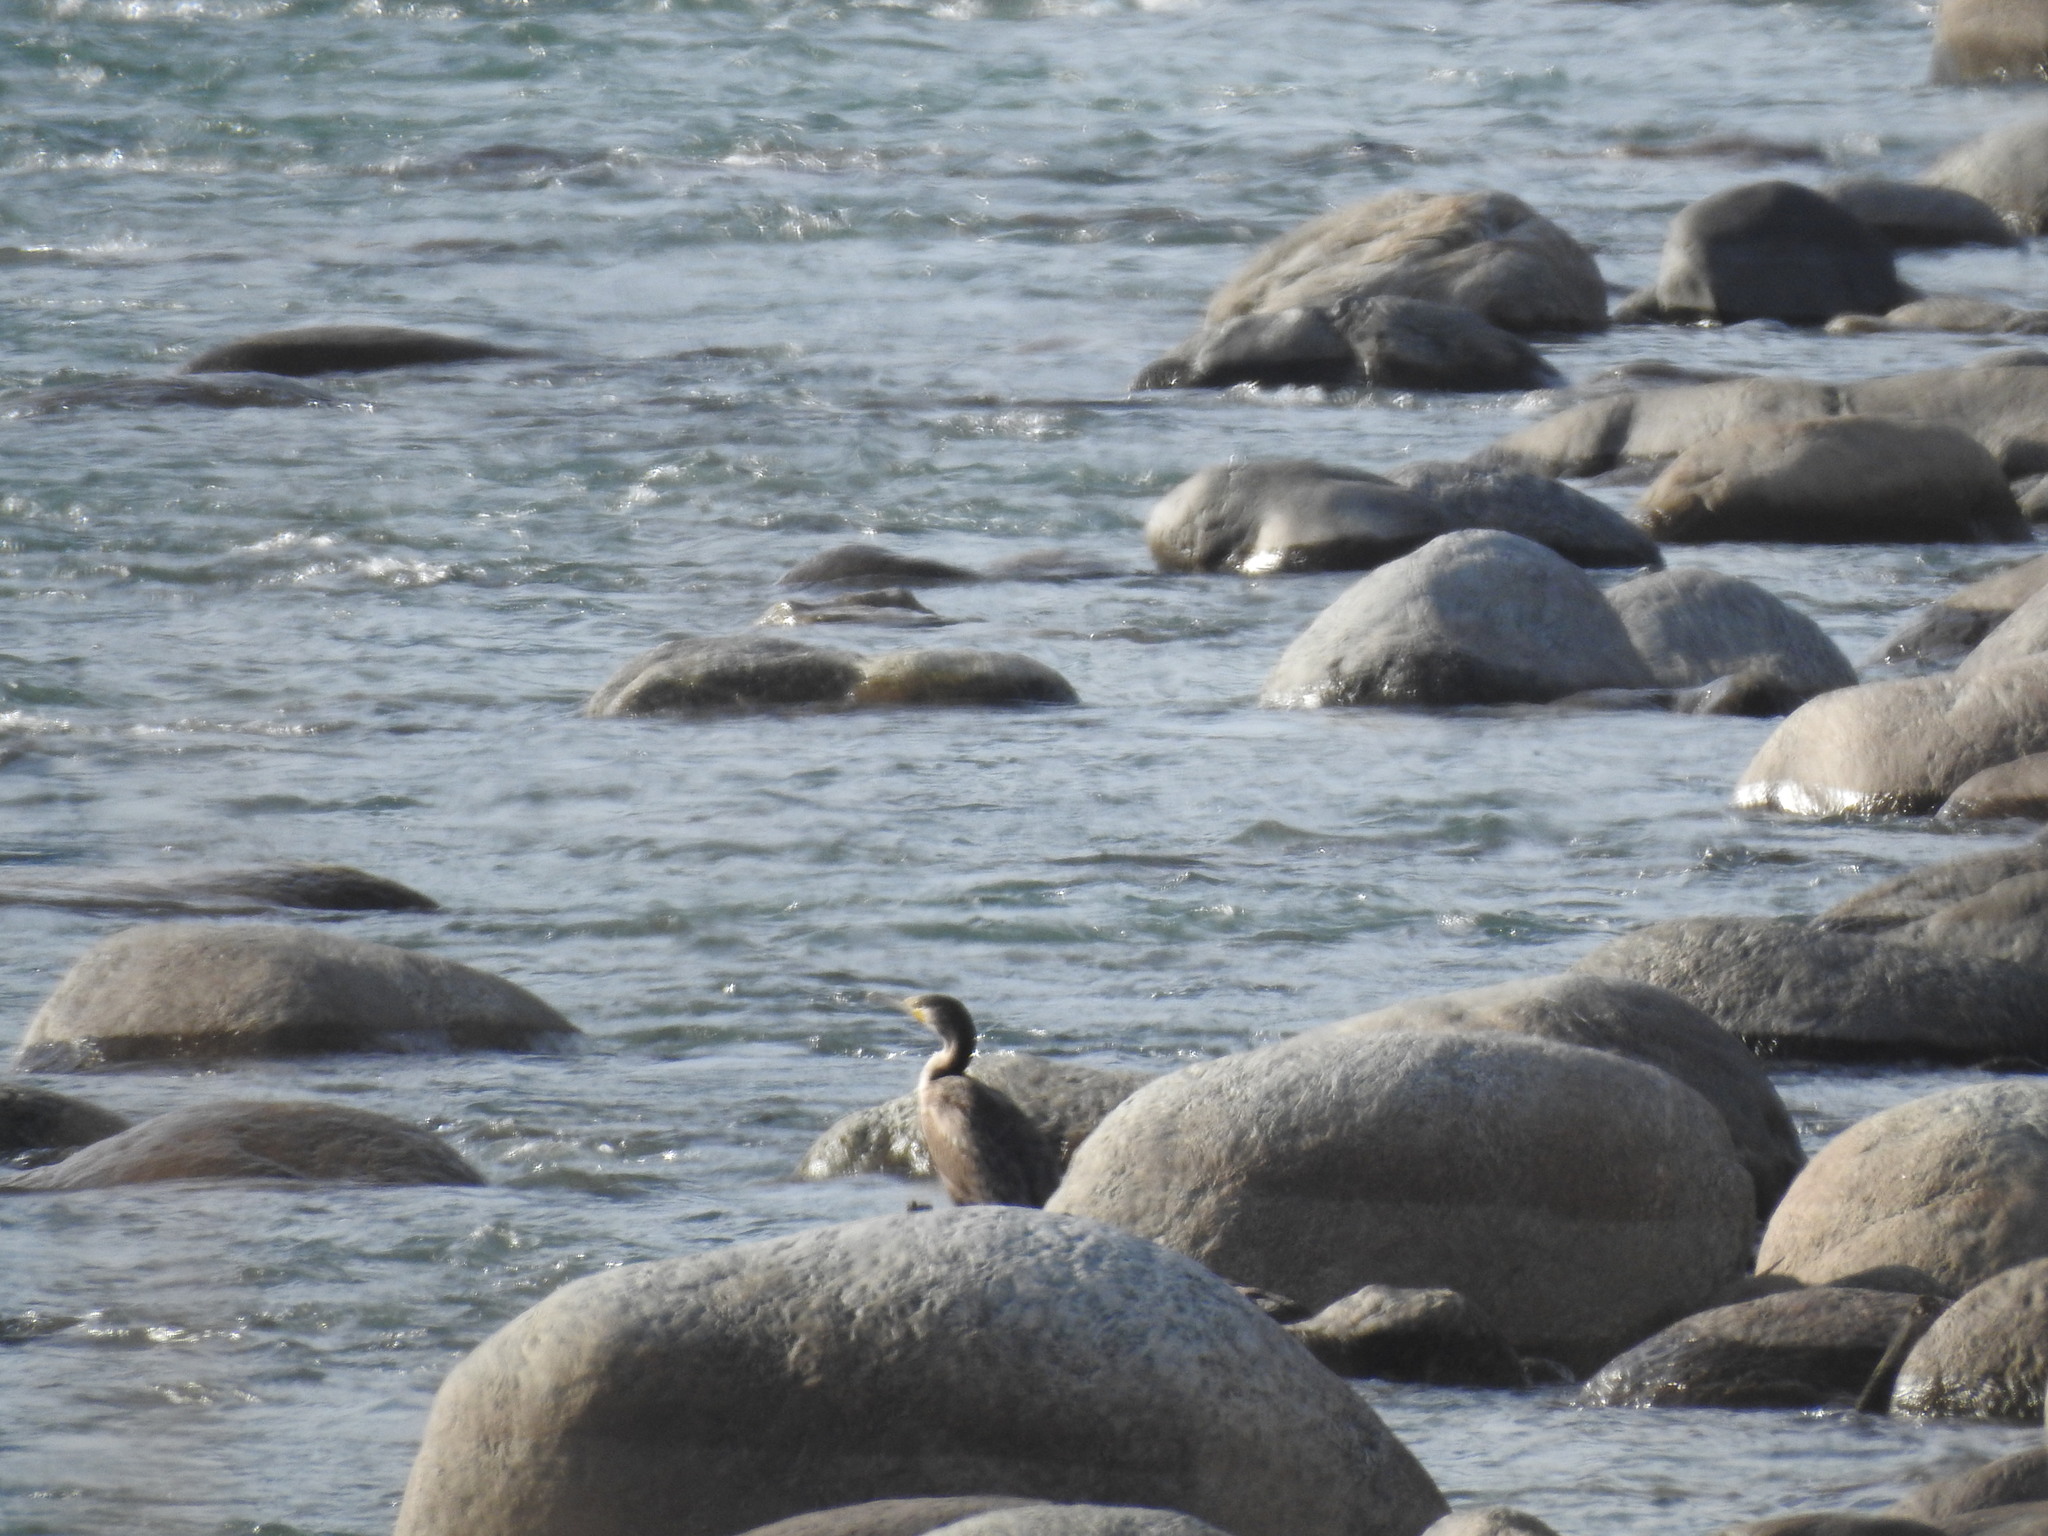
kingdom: Animalia
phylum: Chordata
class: Aves
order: Suliformes
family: Phalacrocoracidae
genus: Phalacrocorax
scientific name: Phalacrocorax carbo
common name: Great cormorant
